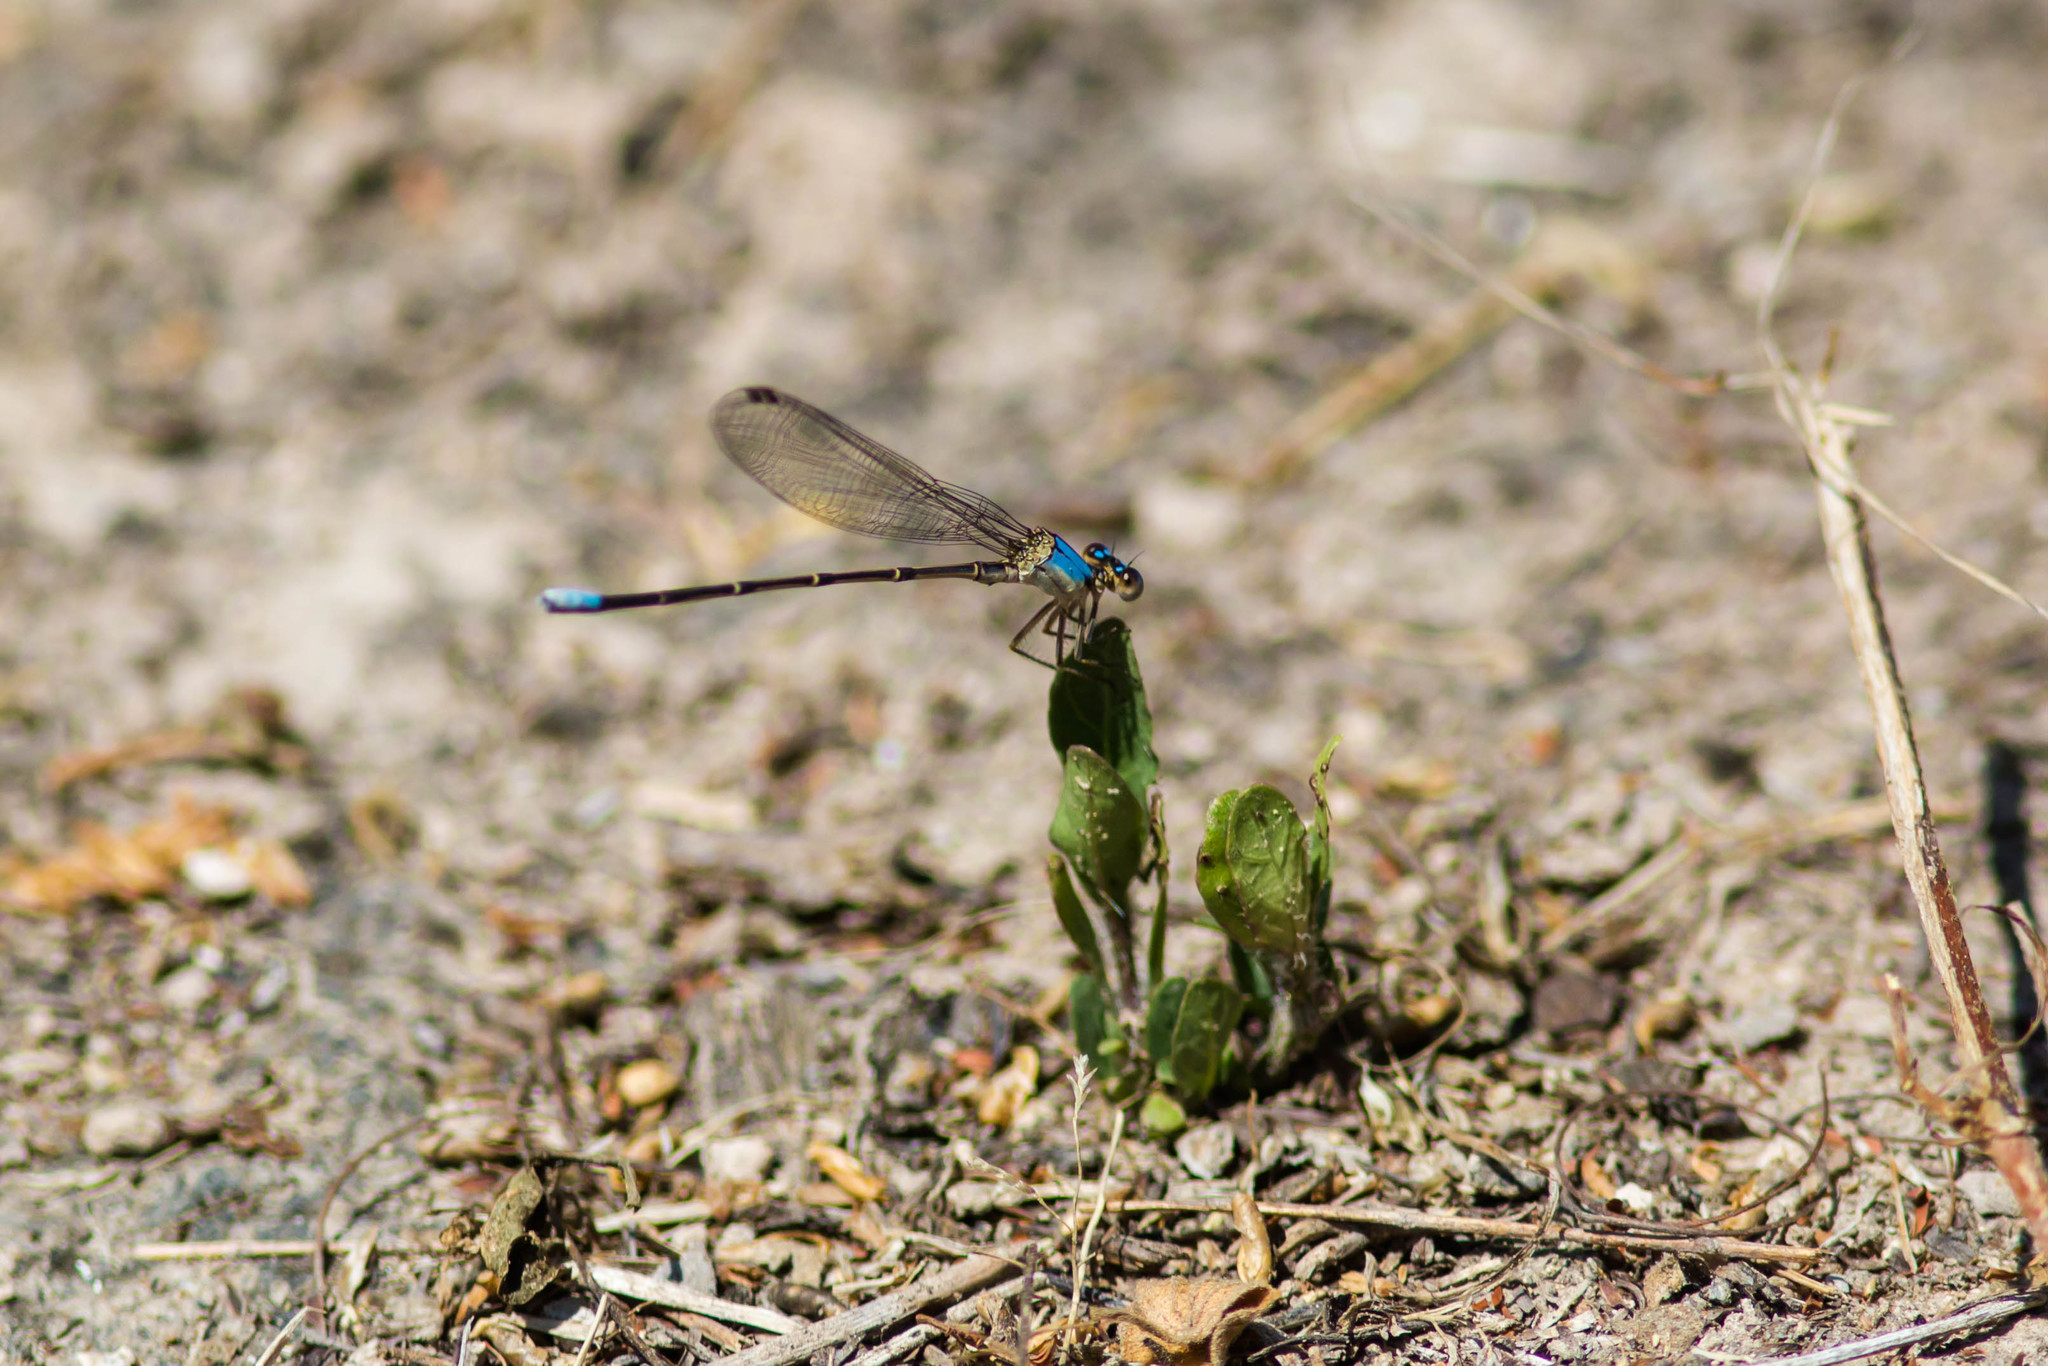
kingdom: Animalia
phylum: Arthropoda
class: Insecta
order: Odonata
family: Coenagrionidae
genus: Argia
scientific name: Argia apicalis
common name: Blue-fronted dancer
